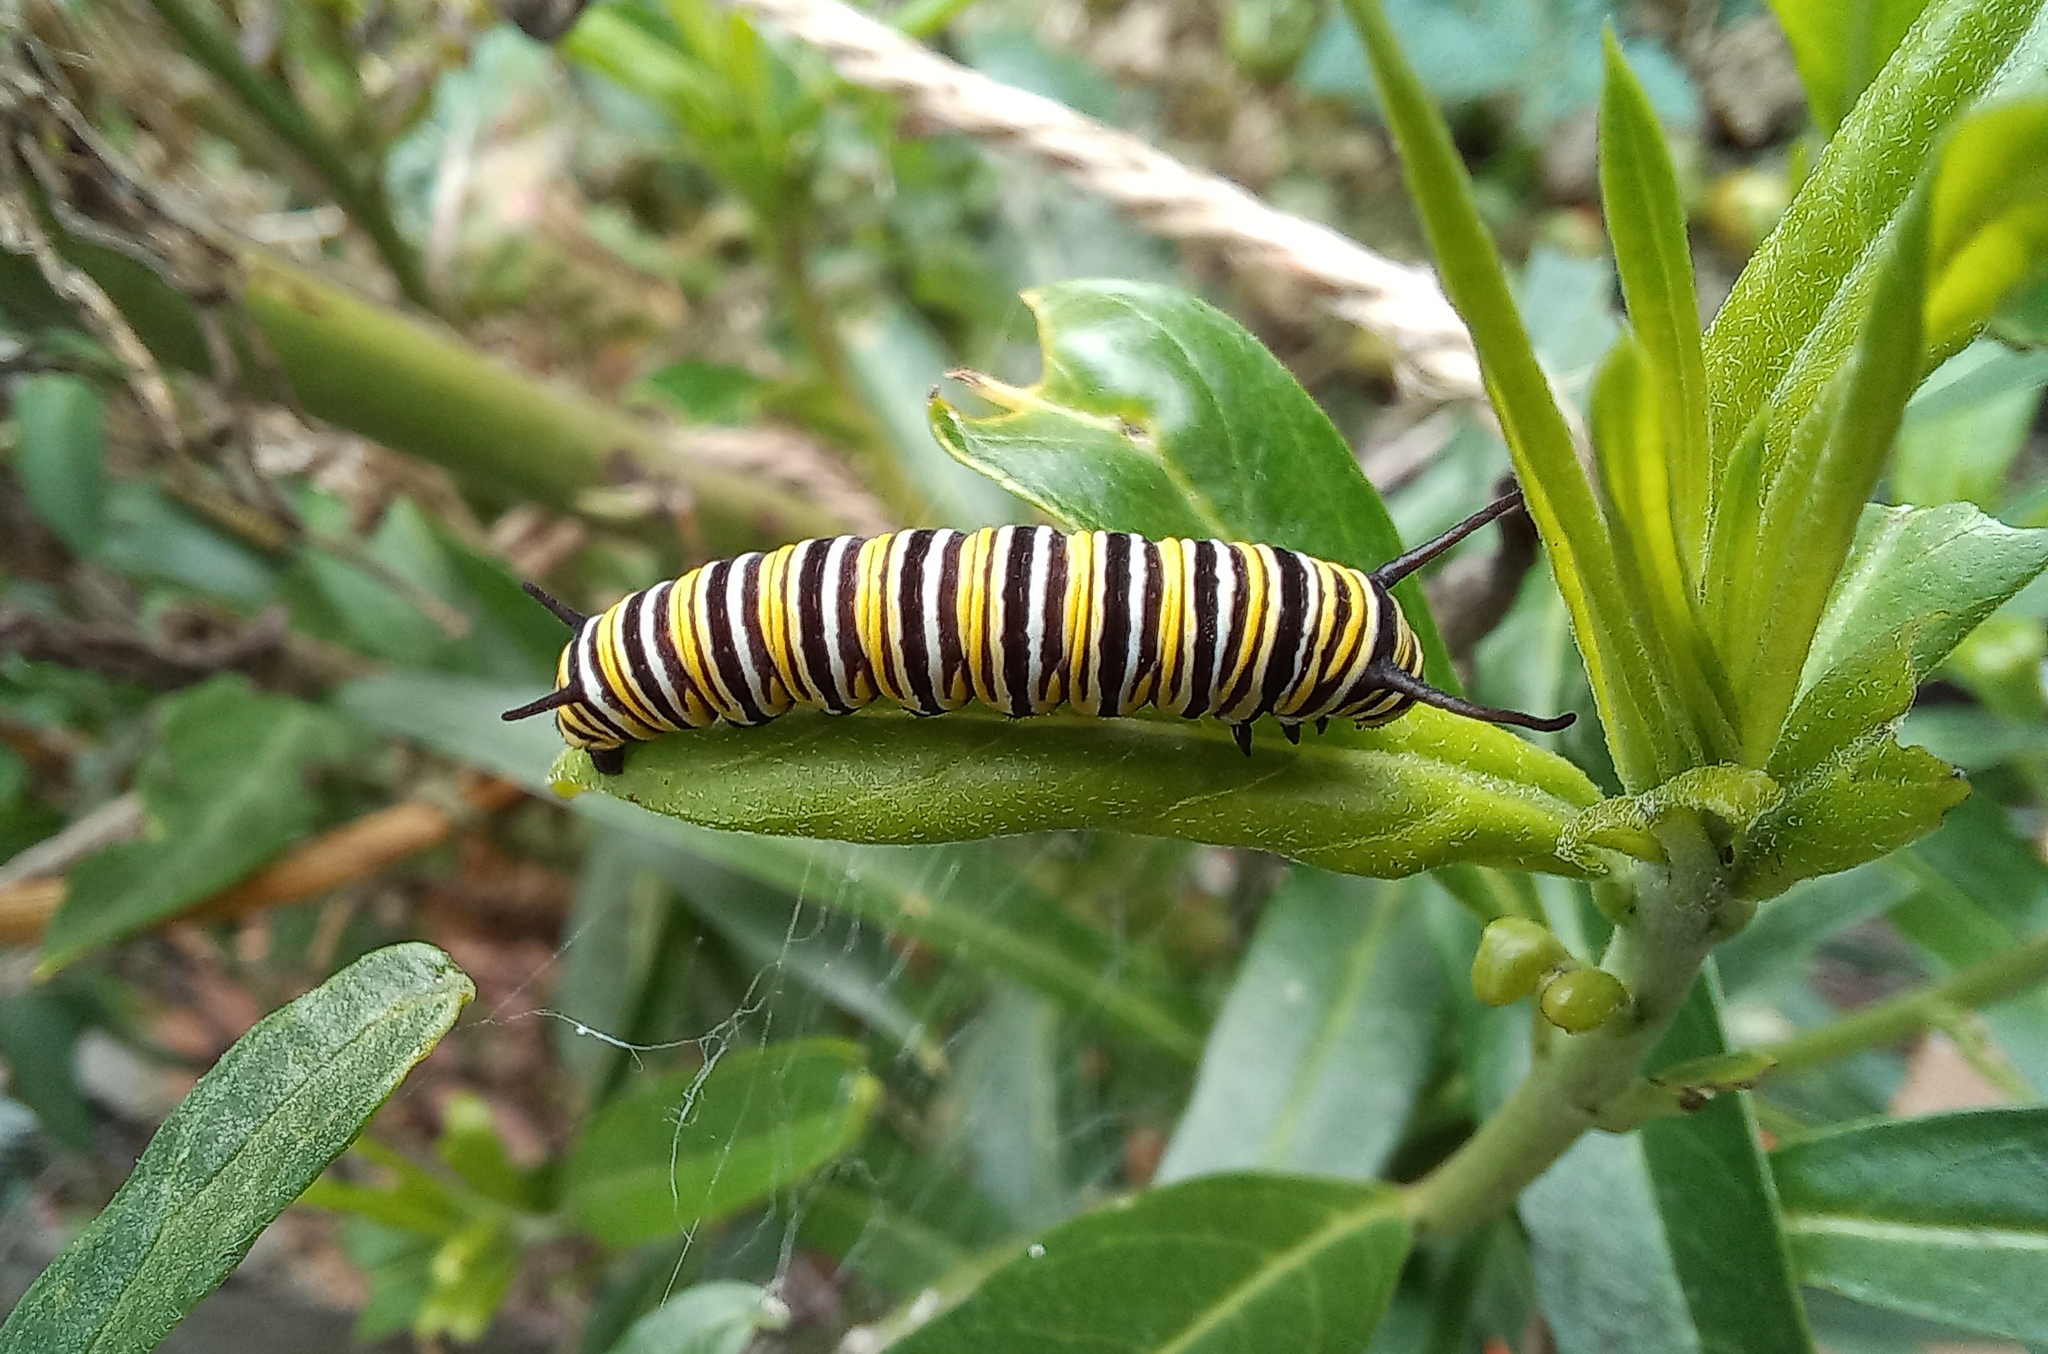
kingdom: Animalia
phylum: Arthropoda
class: Insecta
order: Lepidoptera
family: Nymphalidae
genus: Danaus
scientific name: Danaus plexippus
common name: Monarch
